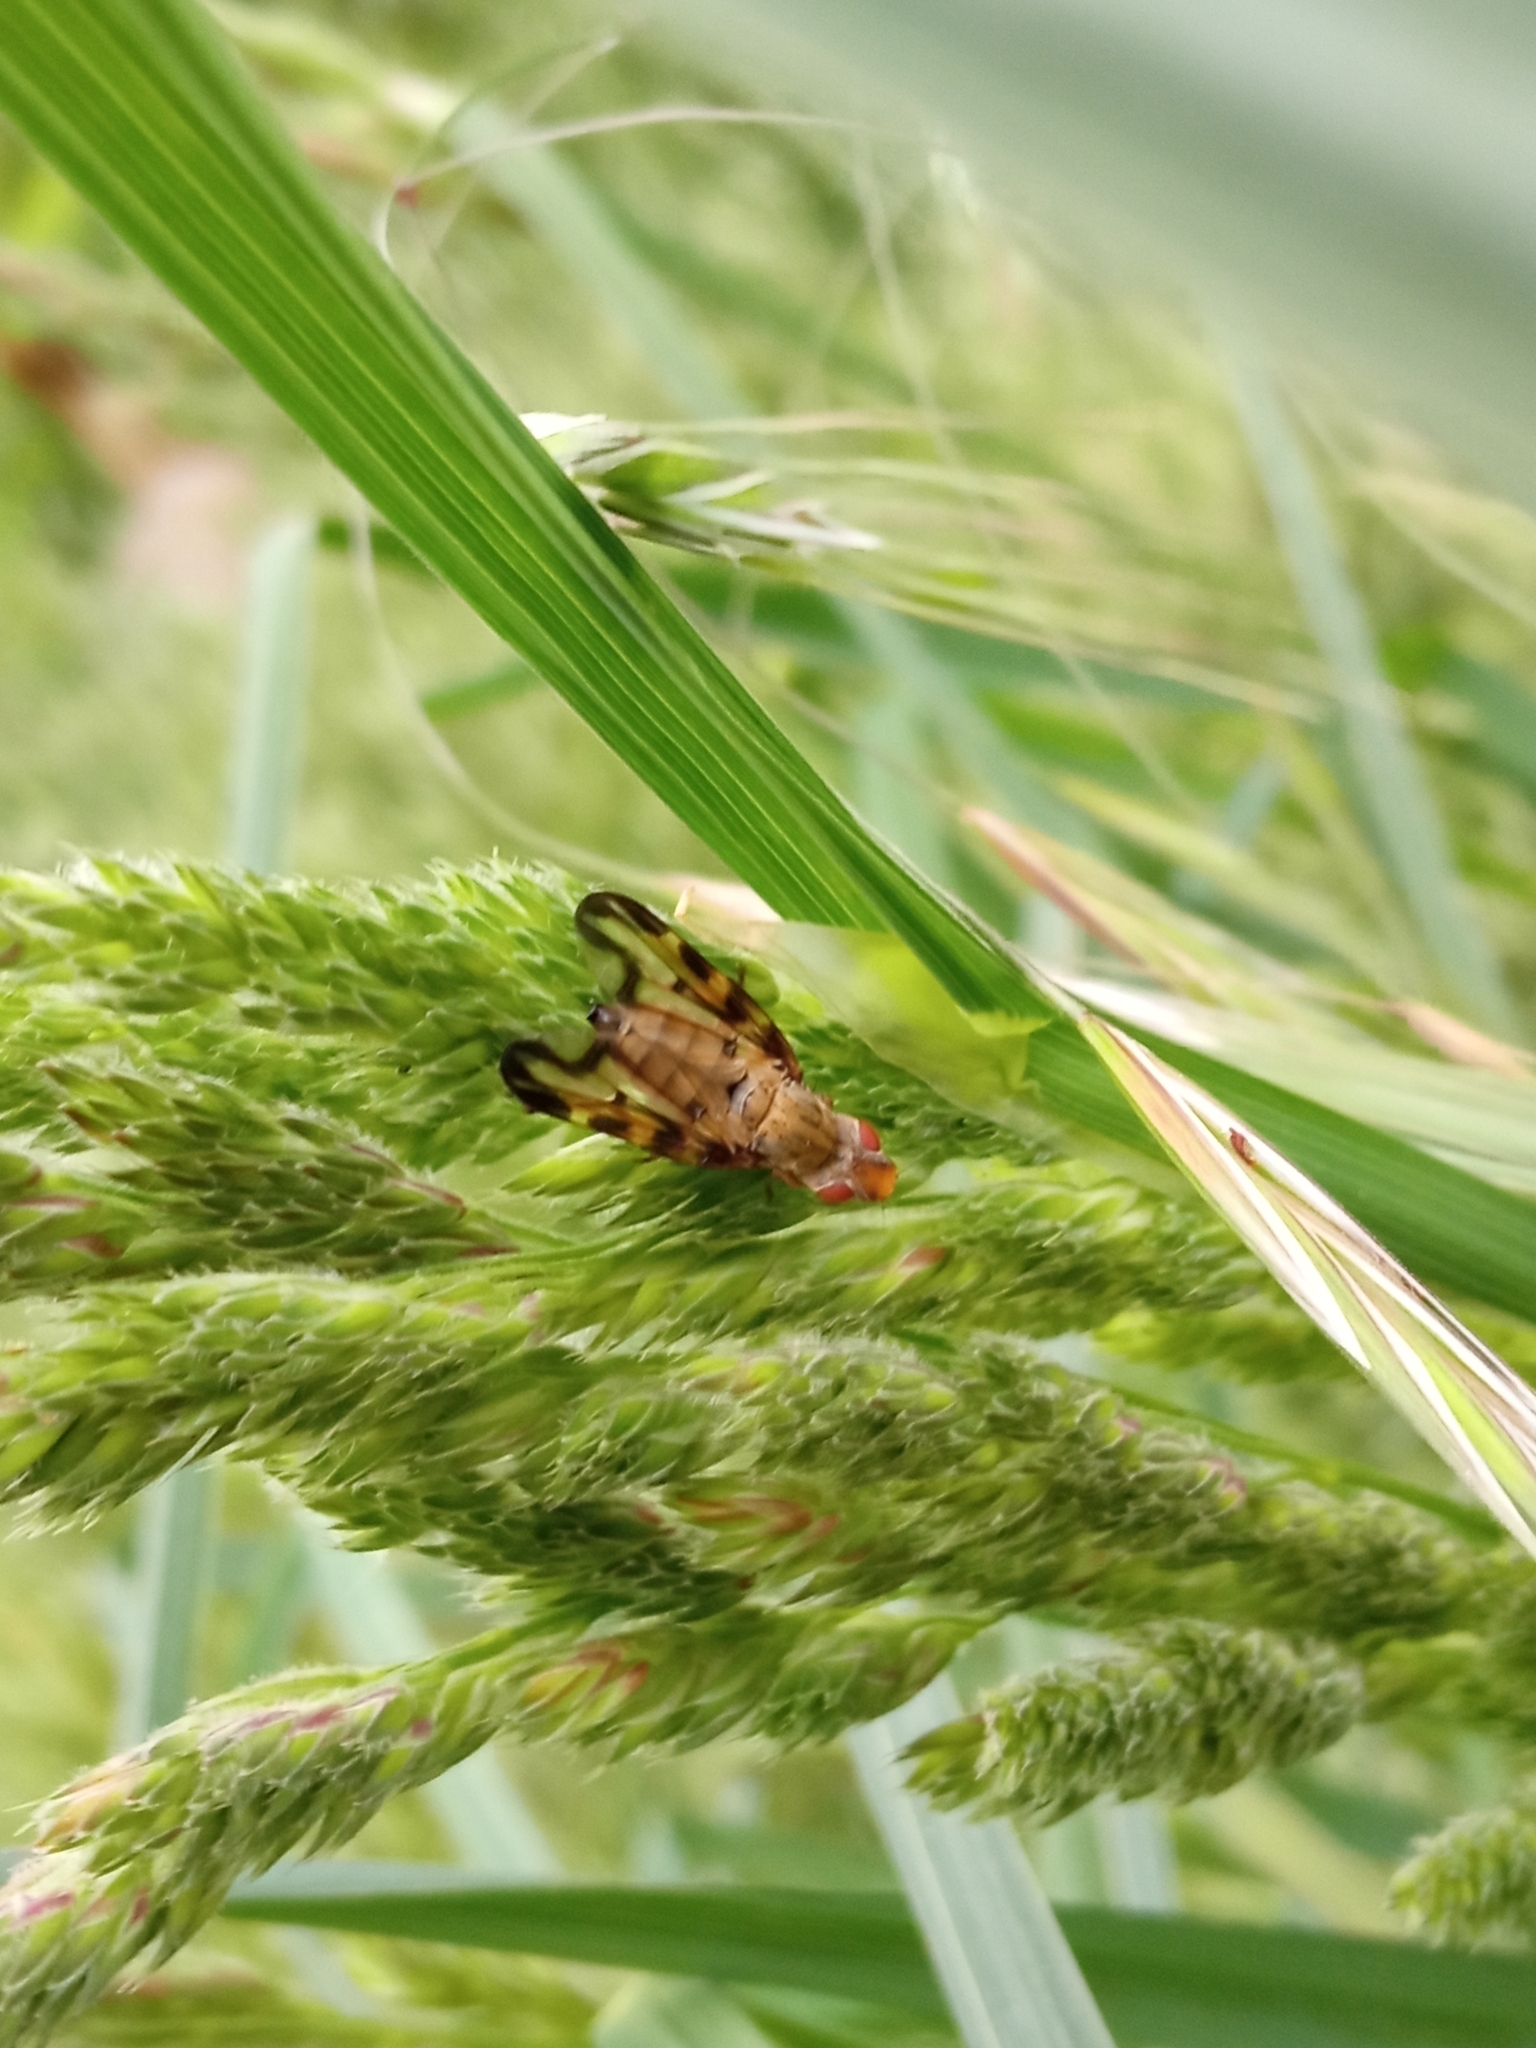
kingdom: Animalia
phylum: Arthropoda
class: Insecta
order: Diptera
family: Ulidiidae
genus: Otites
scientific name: Otites lamed
